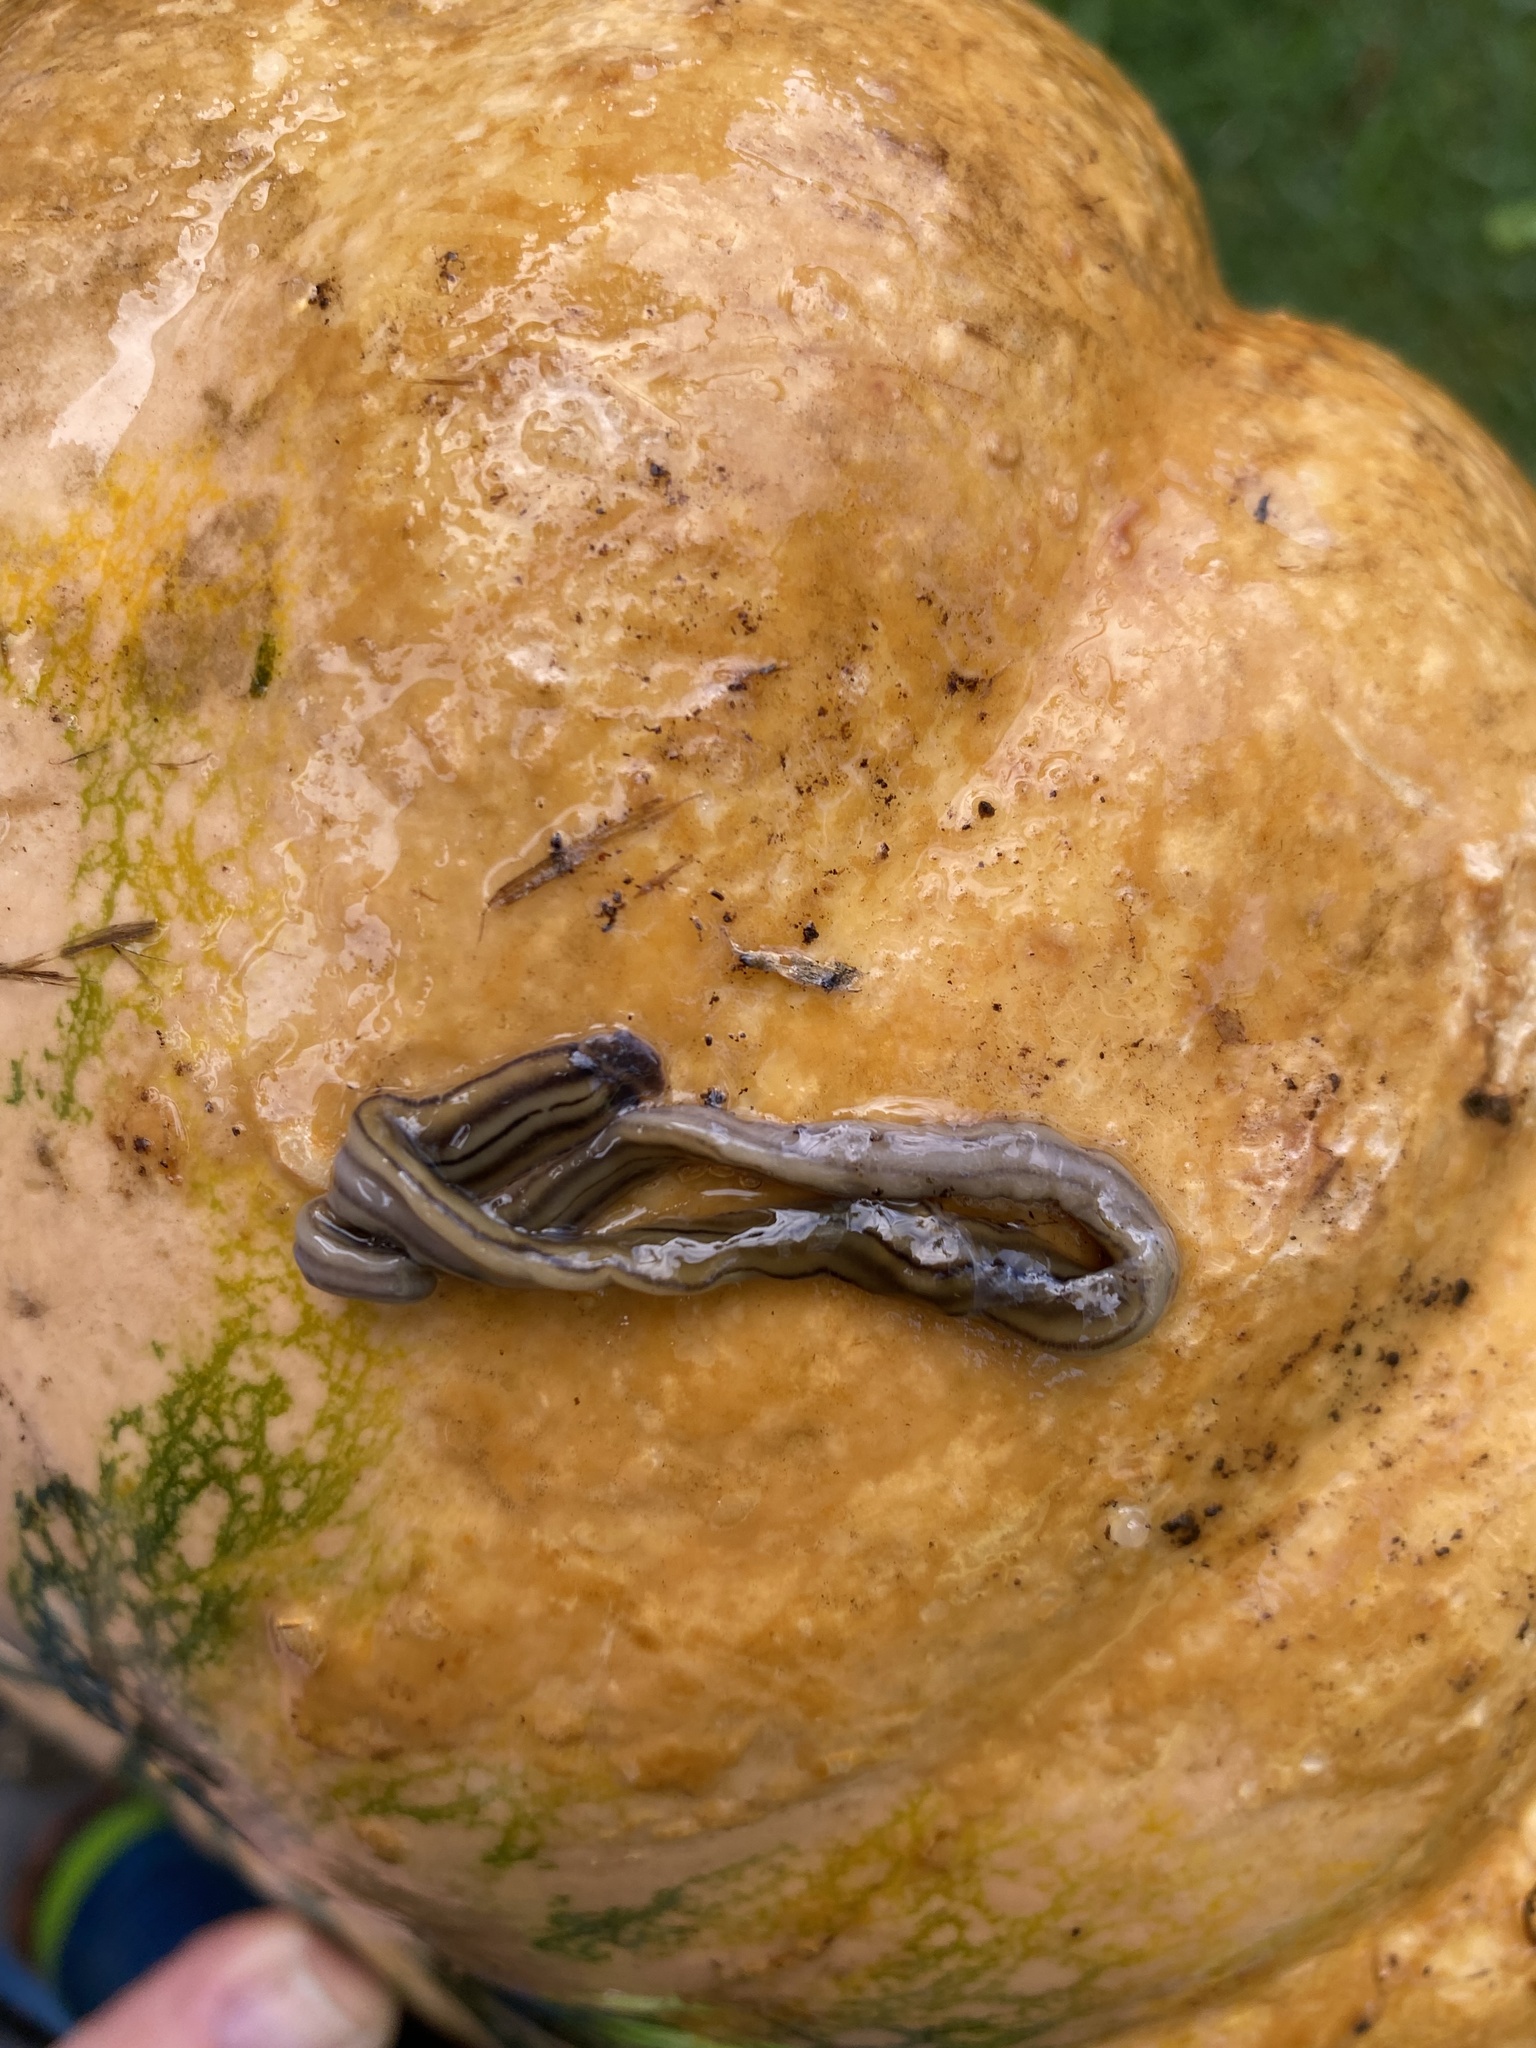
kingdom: Animalia
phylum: Platyhelminthes
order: Tricladida
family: Geoplanidae
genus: Bipalium
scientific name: Bipalium kewense
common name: Hammerhead flatworm
